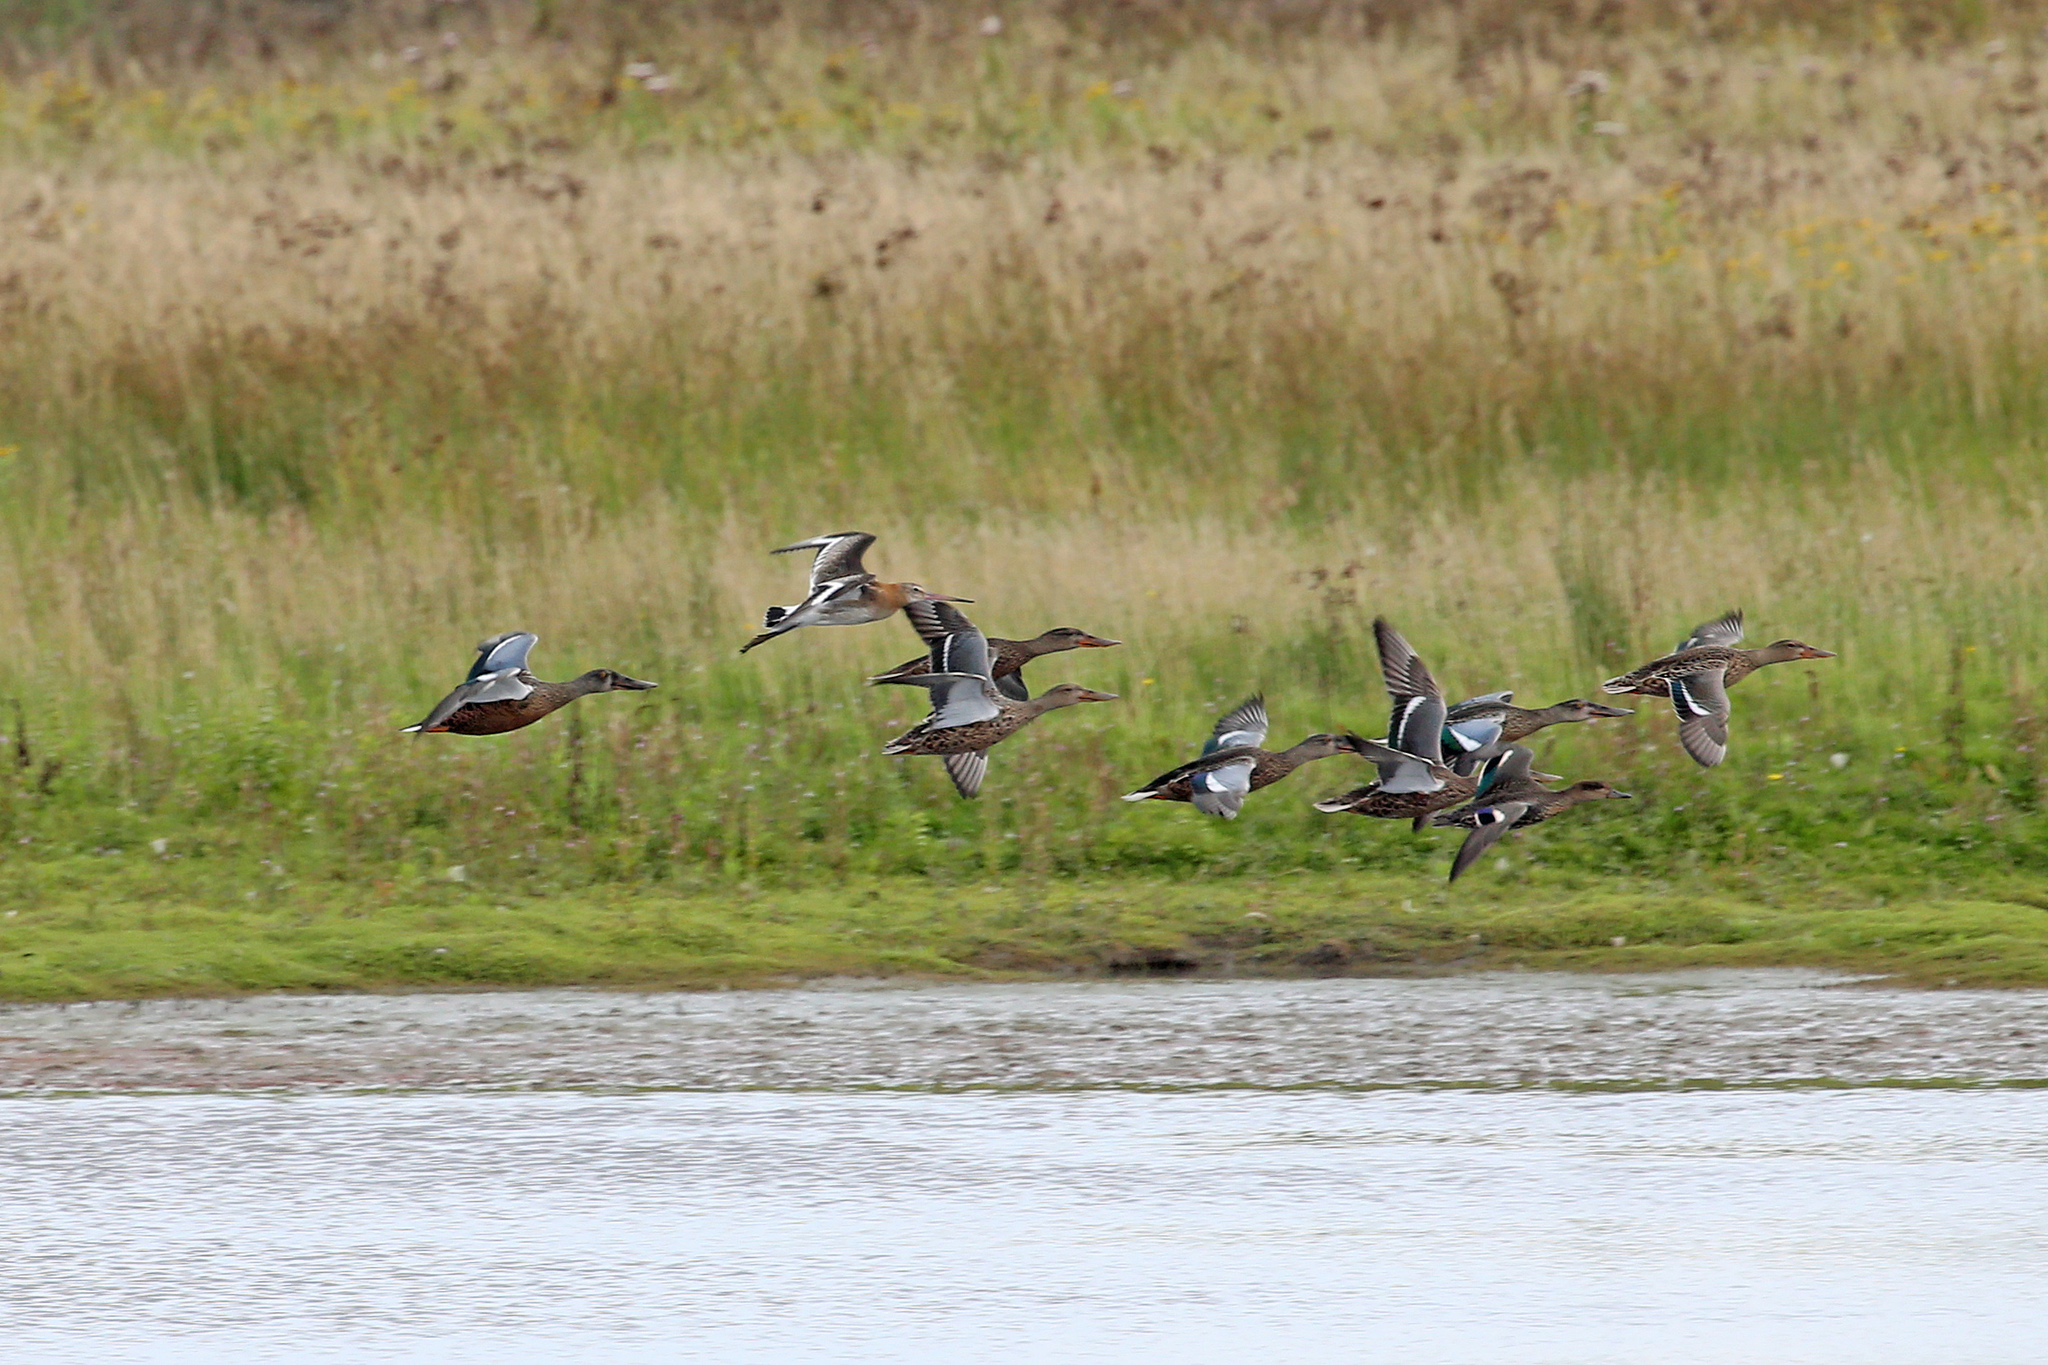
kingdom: Animalia
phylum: Chordata
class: Aves
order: Anseriformes
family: Anatidae
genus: Spatula
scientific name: Spatula clypeata
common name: Northern shoveler
